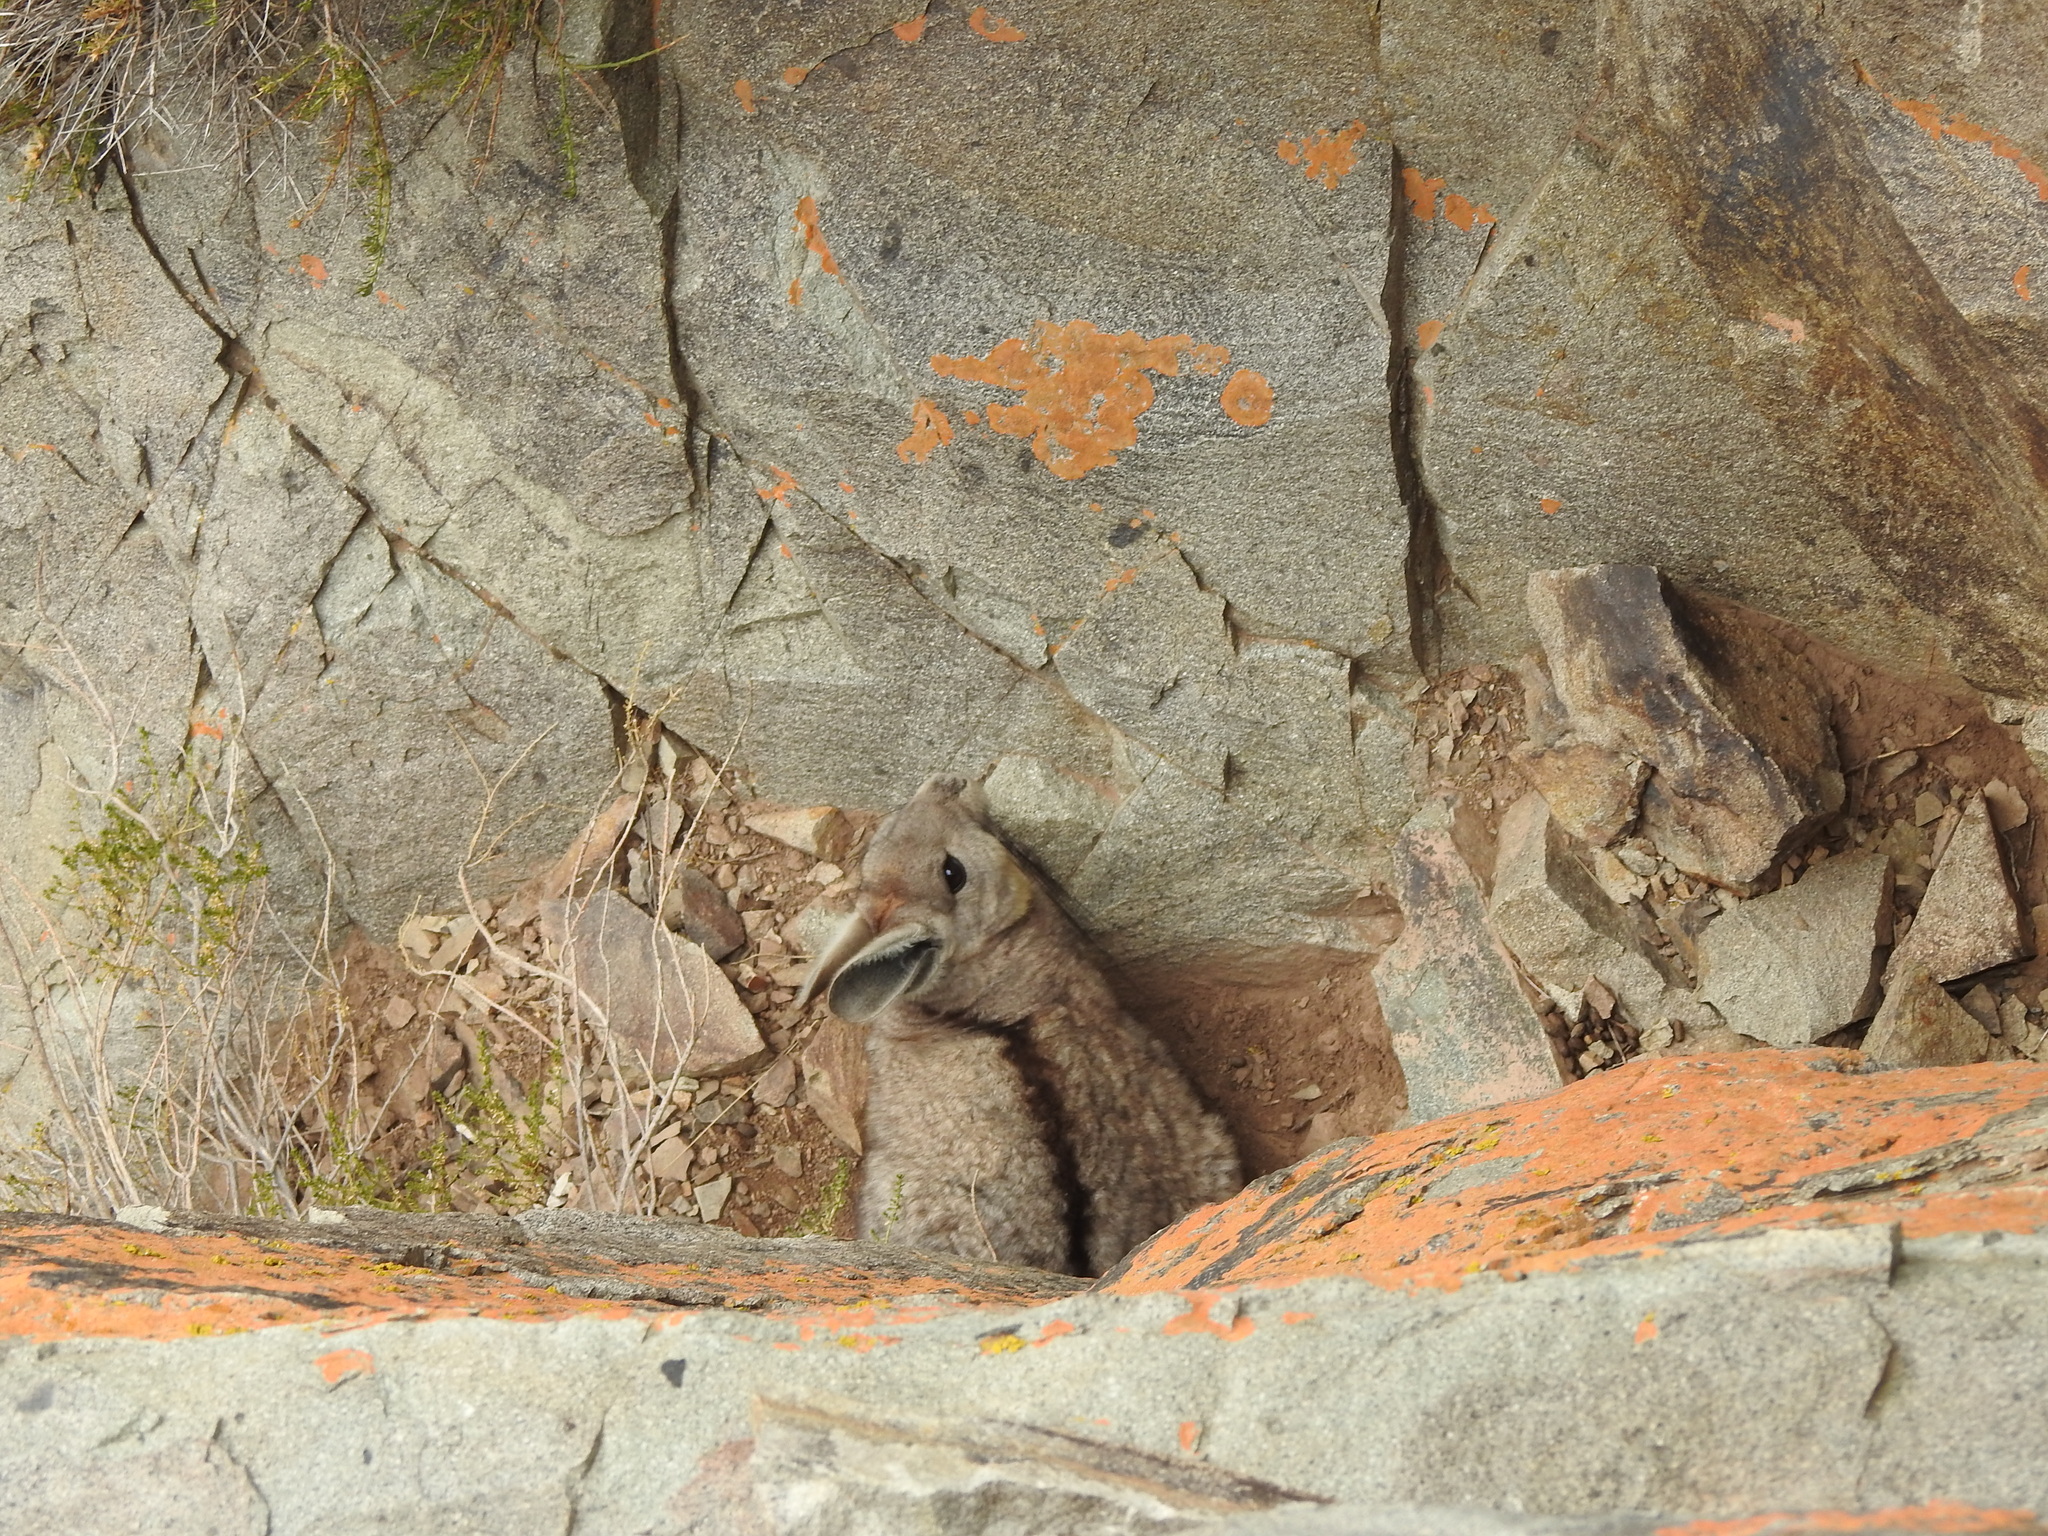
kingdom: Animalia
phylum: Chordata
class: Mammalia
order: Rodentia
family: Chinchillidae
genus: Lagidium
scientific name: Lagidium viscacia
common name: Southern viscacha
